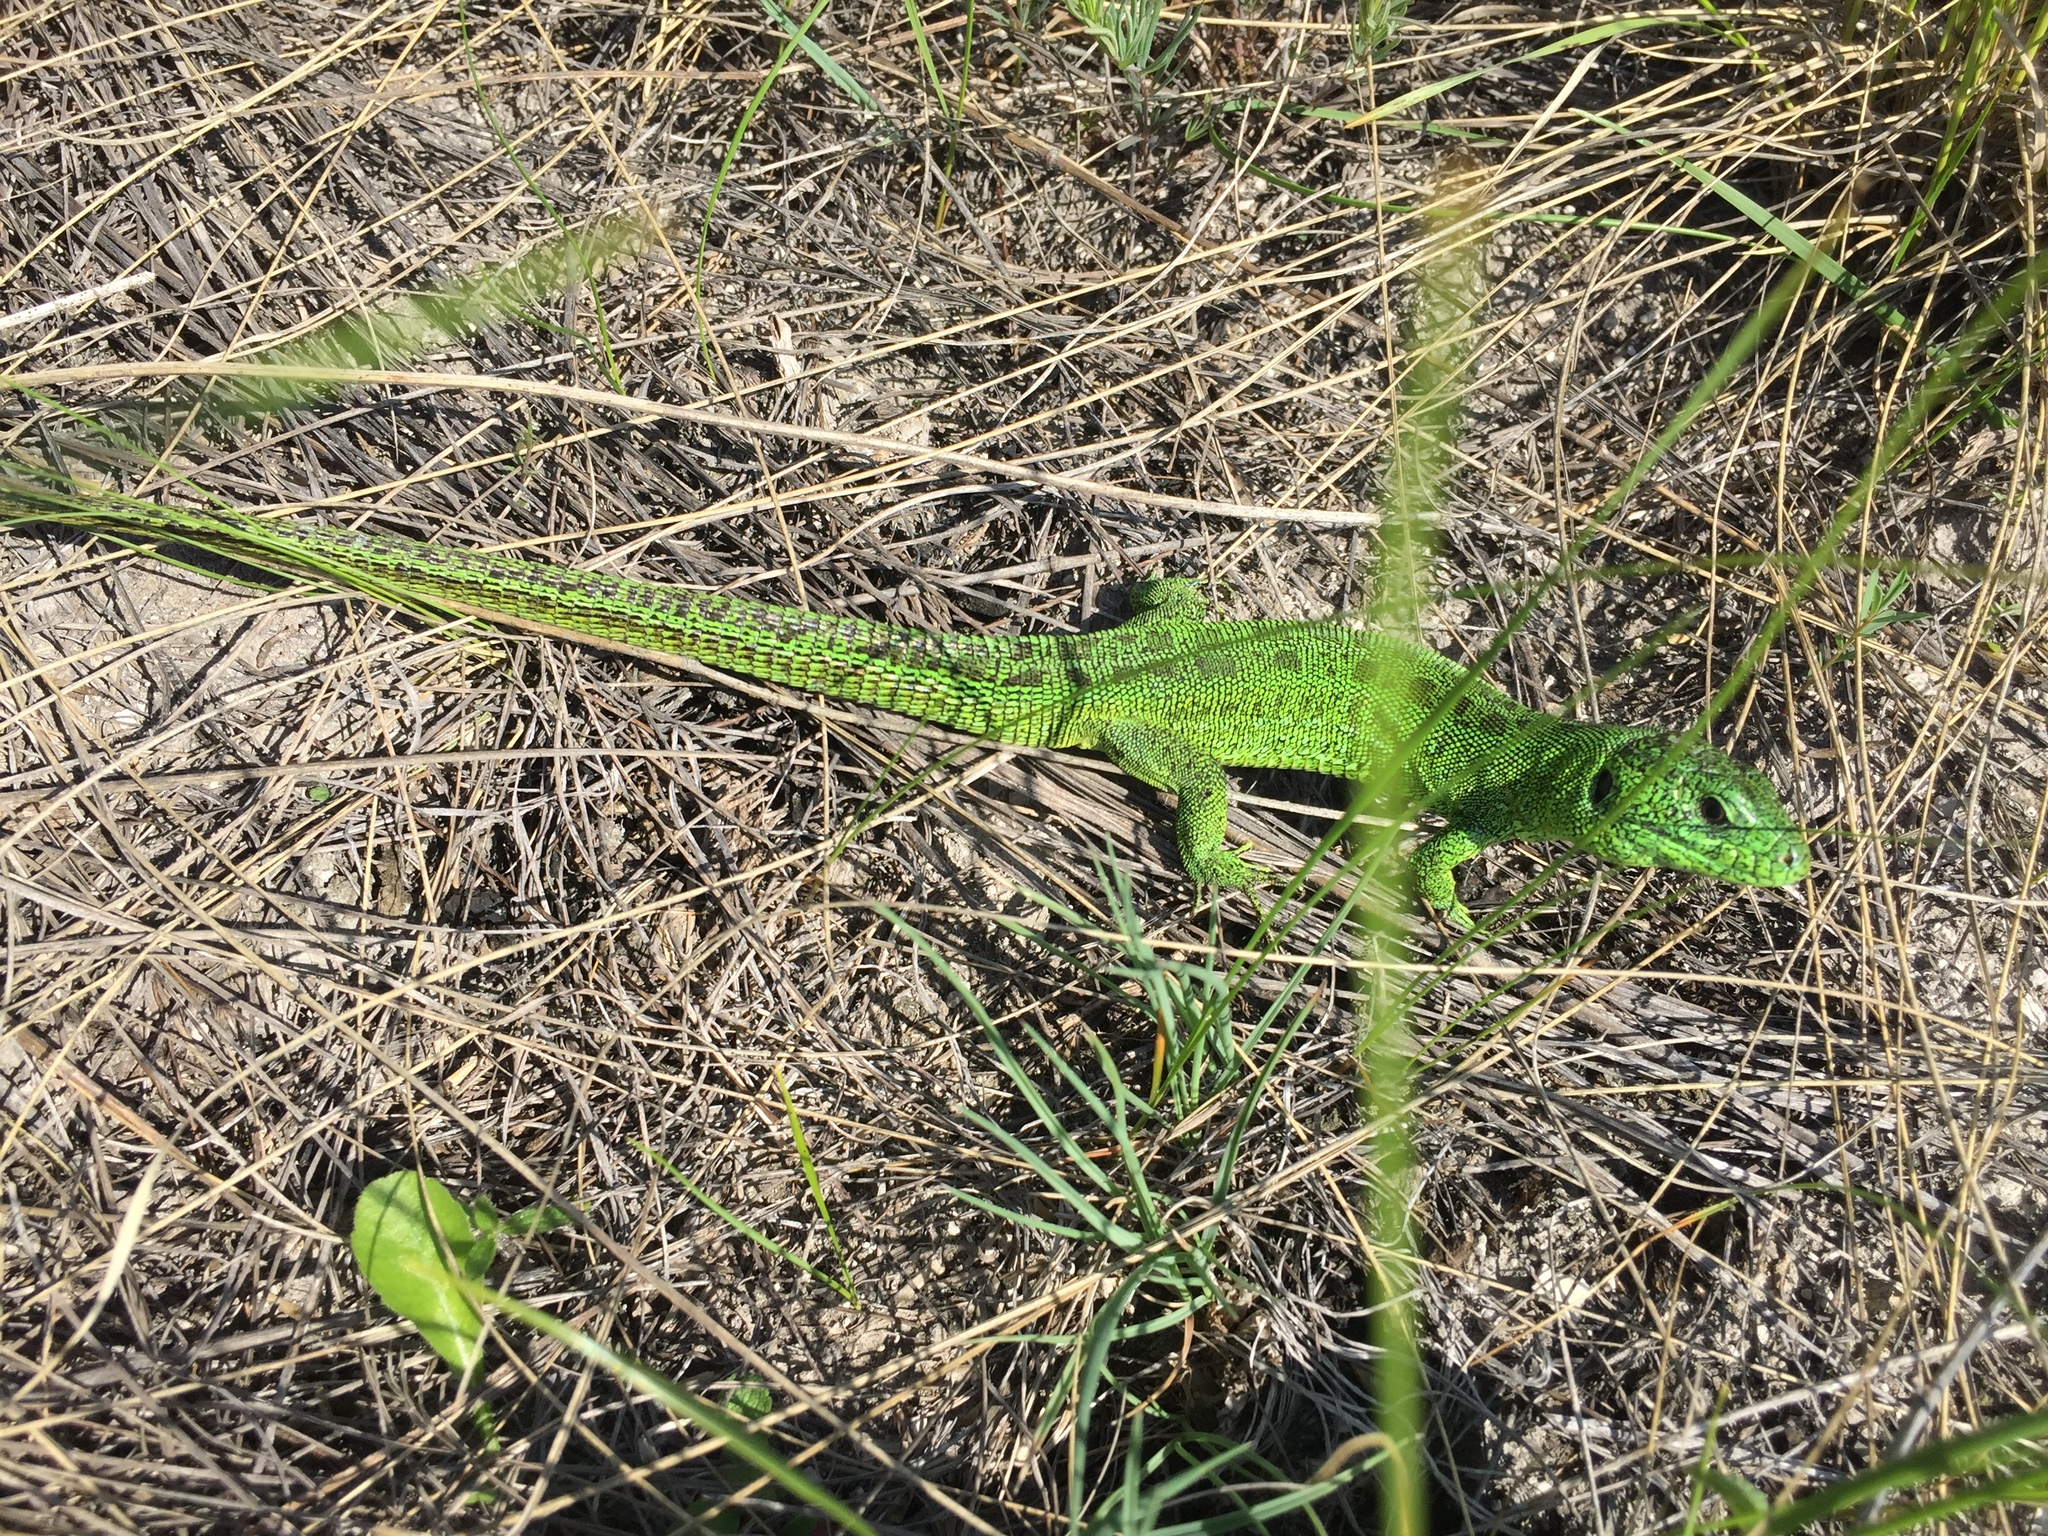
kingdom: Animalia
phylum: Chordata
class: Squamata
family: Lacertidae
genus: Lacerta
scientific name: Lacerta agilis
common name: Sand lizard
